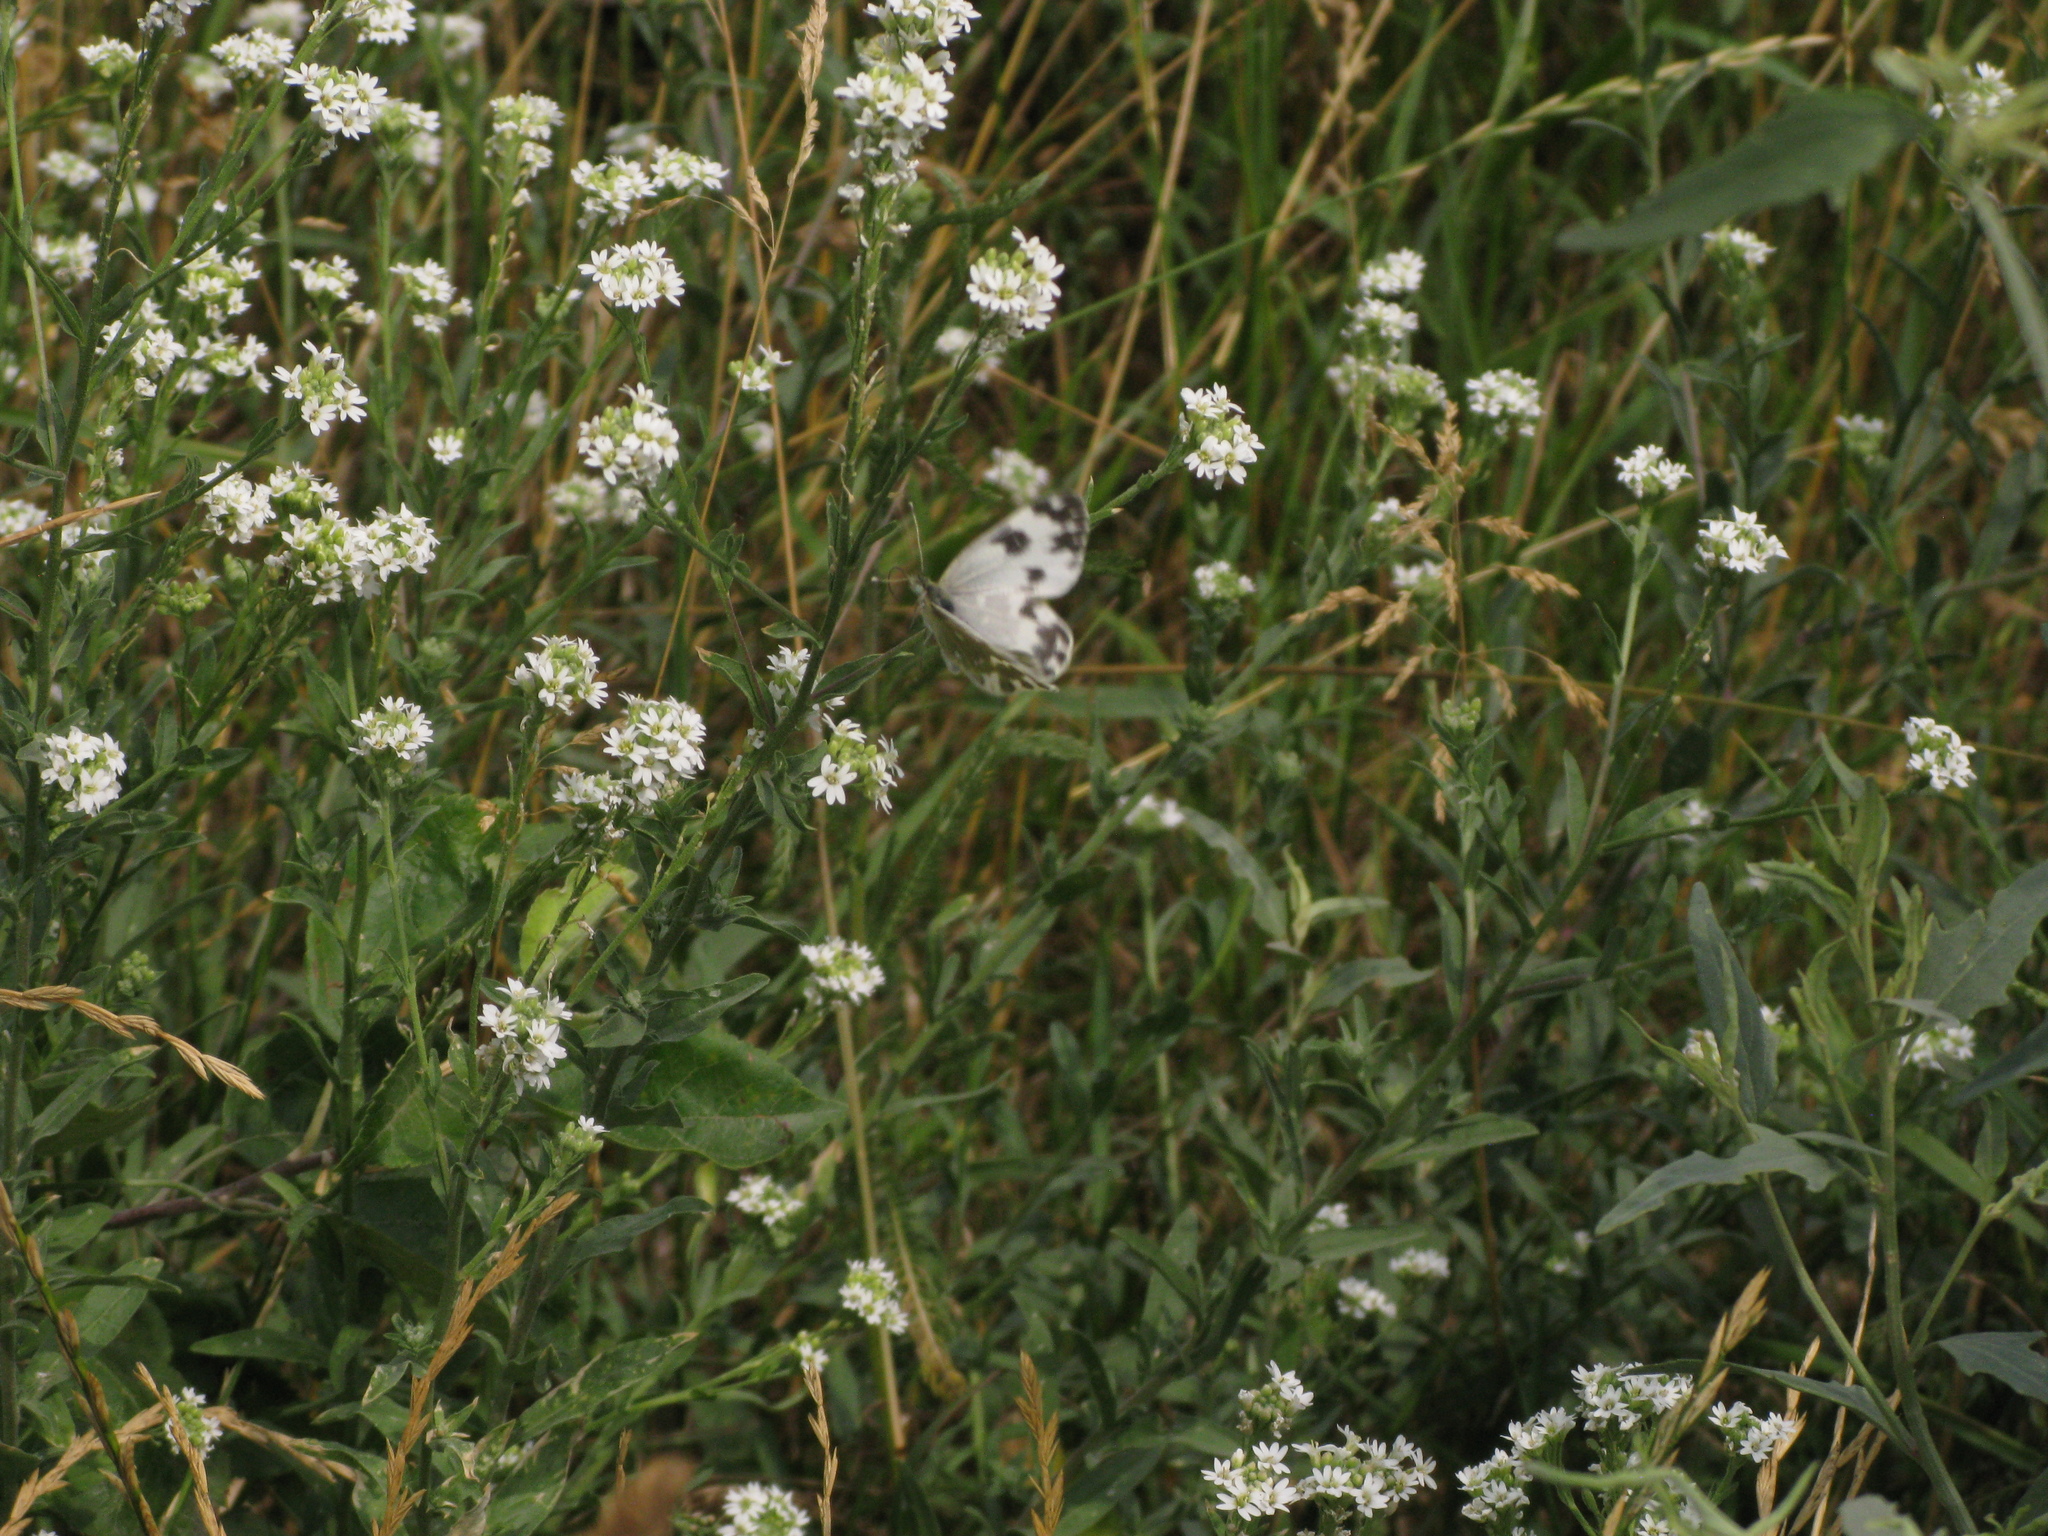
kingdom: Animalia
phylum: Arthropoda
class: Insecta
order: Lepidoptera
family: Pieridae
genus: Pontia
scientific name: Pontia edusa
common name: Eastern bath white
